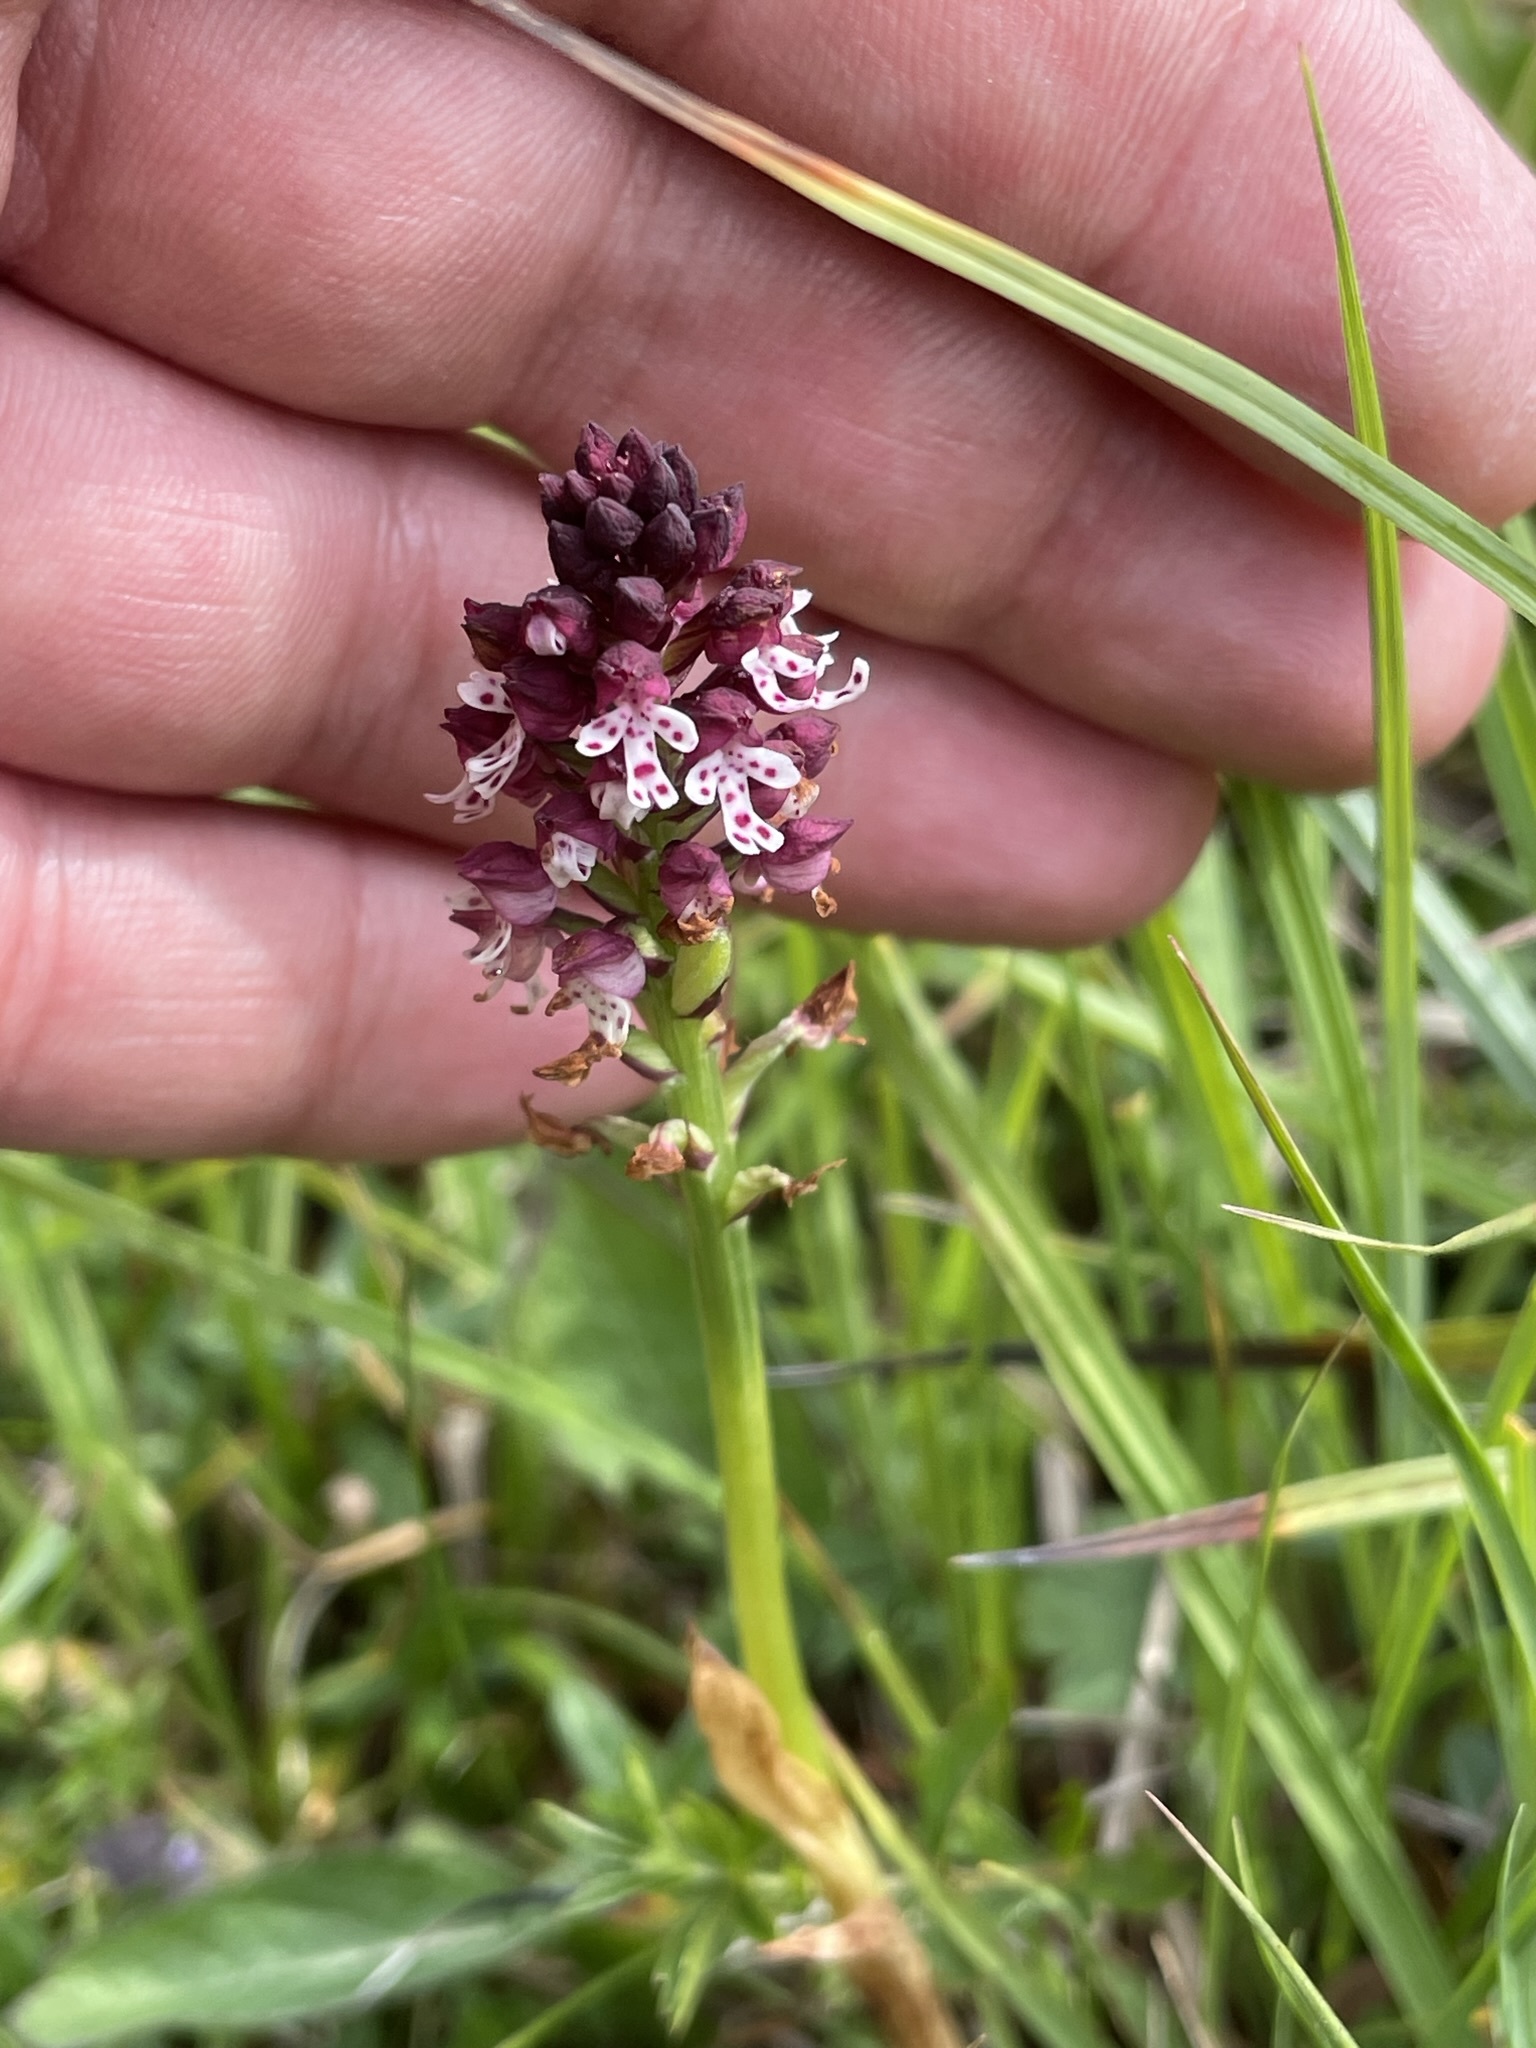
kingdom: Plantae
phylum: Tracheophyta
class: Liliopsida
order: Asparagales
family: Orchidaceae
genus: Neotinea
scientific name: Neotinea ustulata
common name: Burnt orchid
